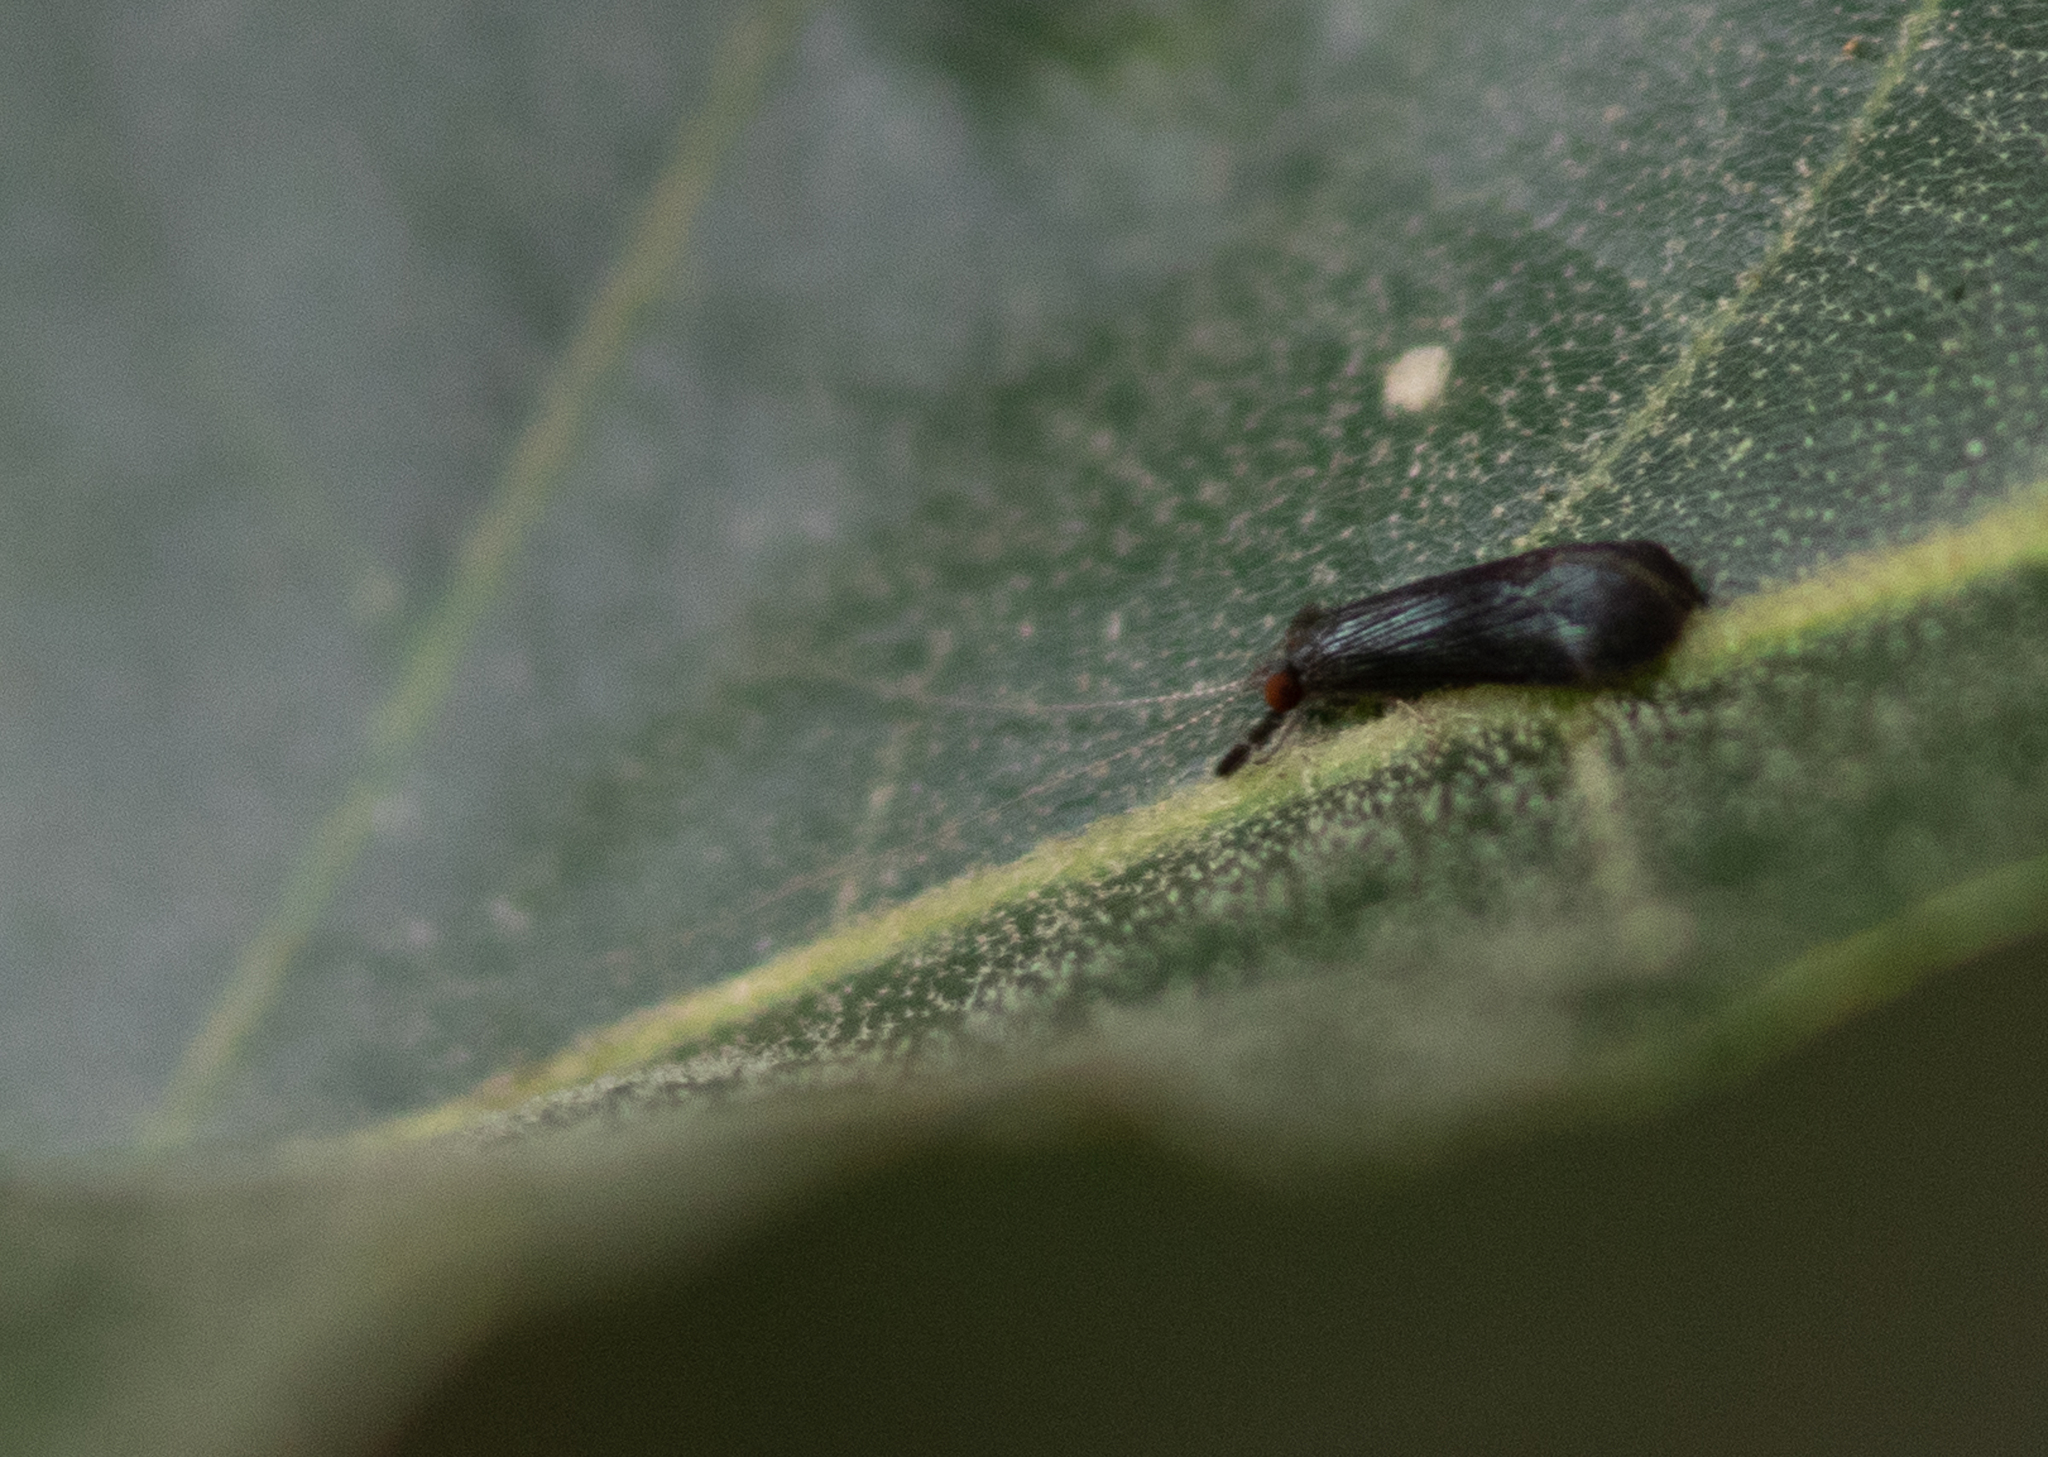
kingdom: Animalia
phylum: Arthropoda
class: Insecta
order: Trichoptera
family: Leptoceridae
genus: Mystacides
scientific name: Mystacides sepulchralis
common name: Black dancer caddisfly
